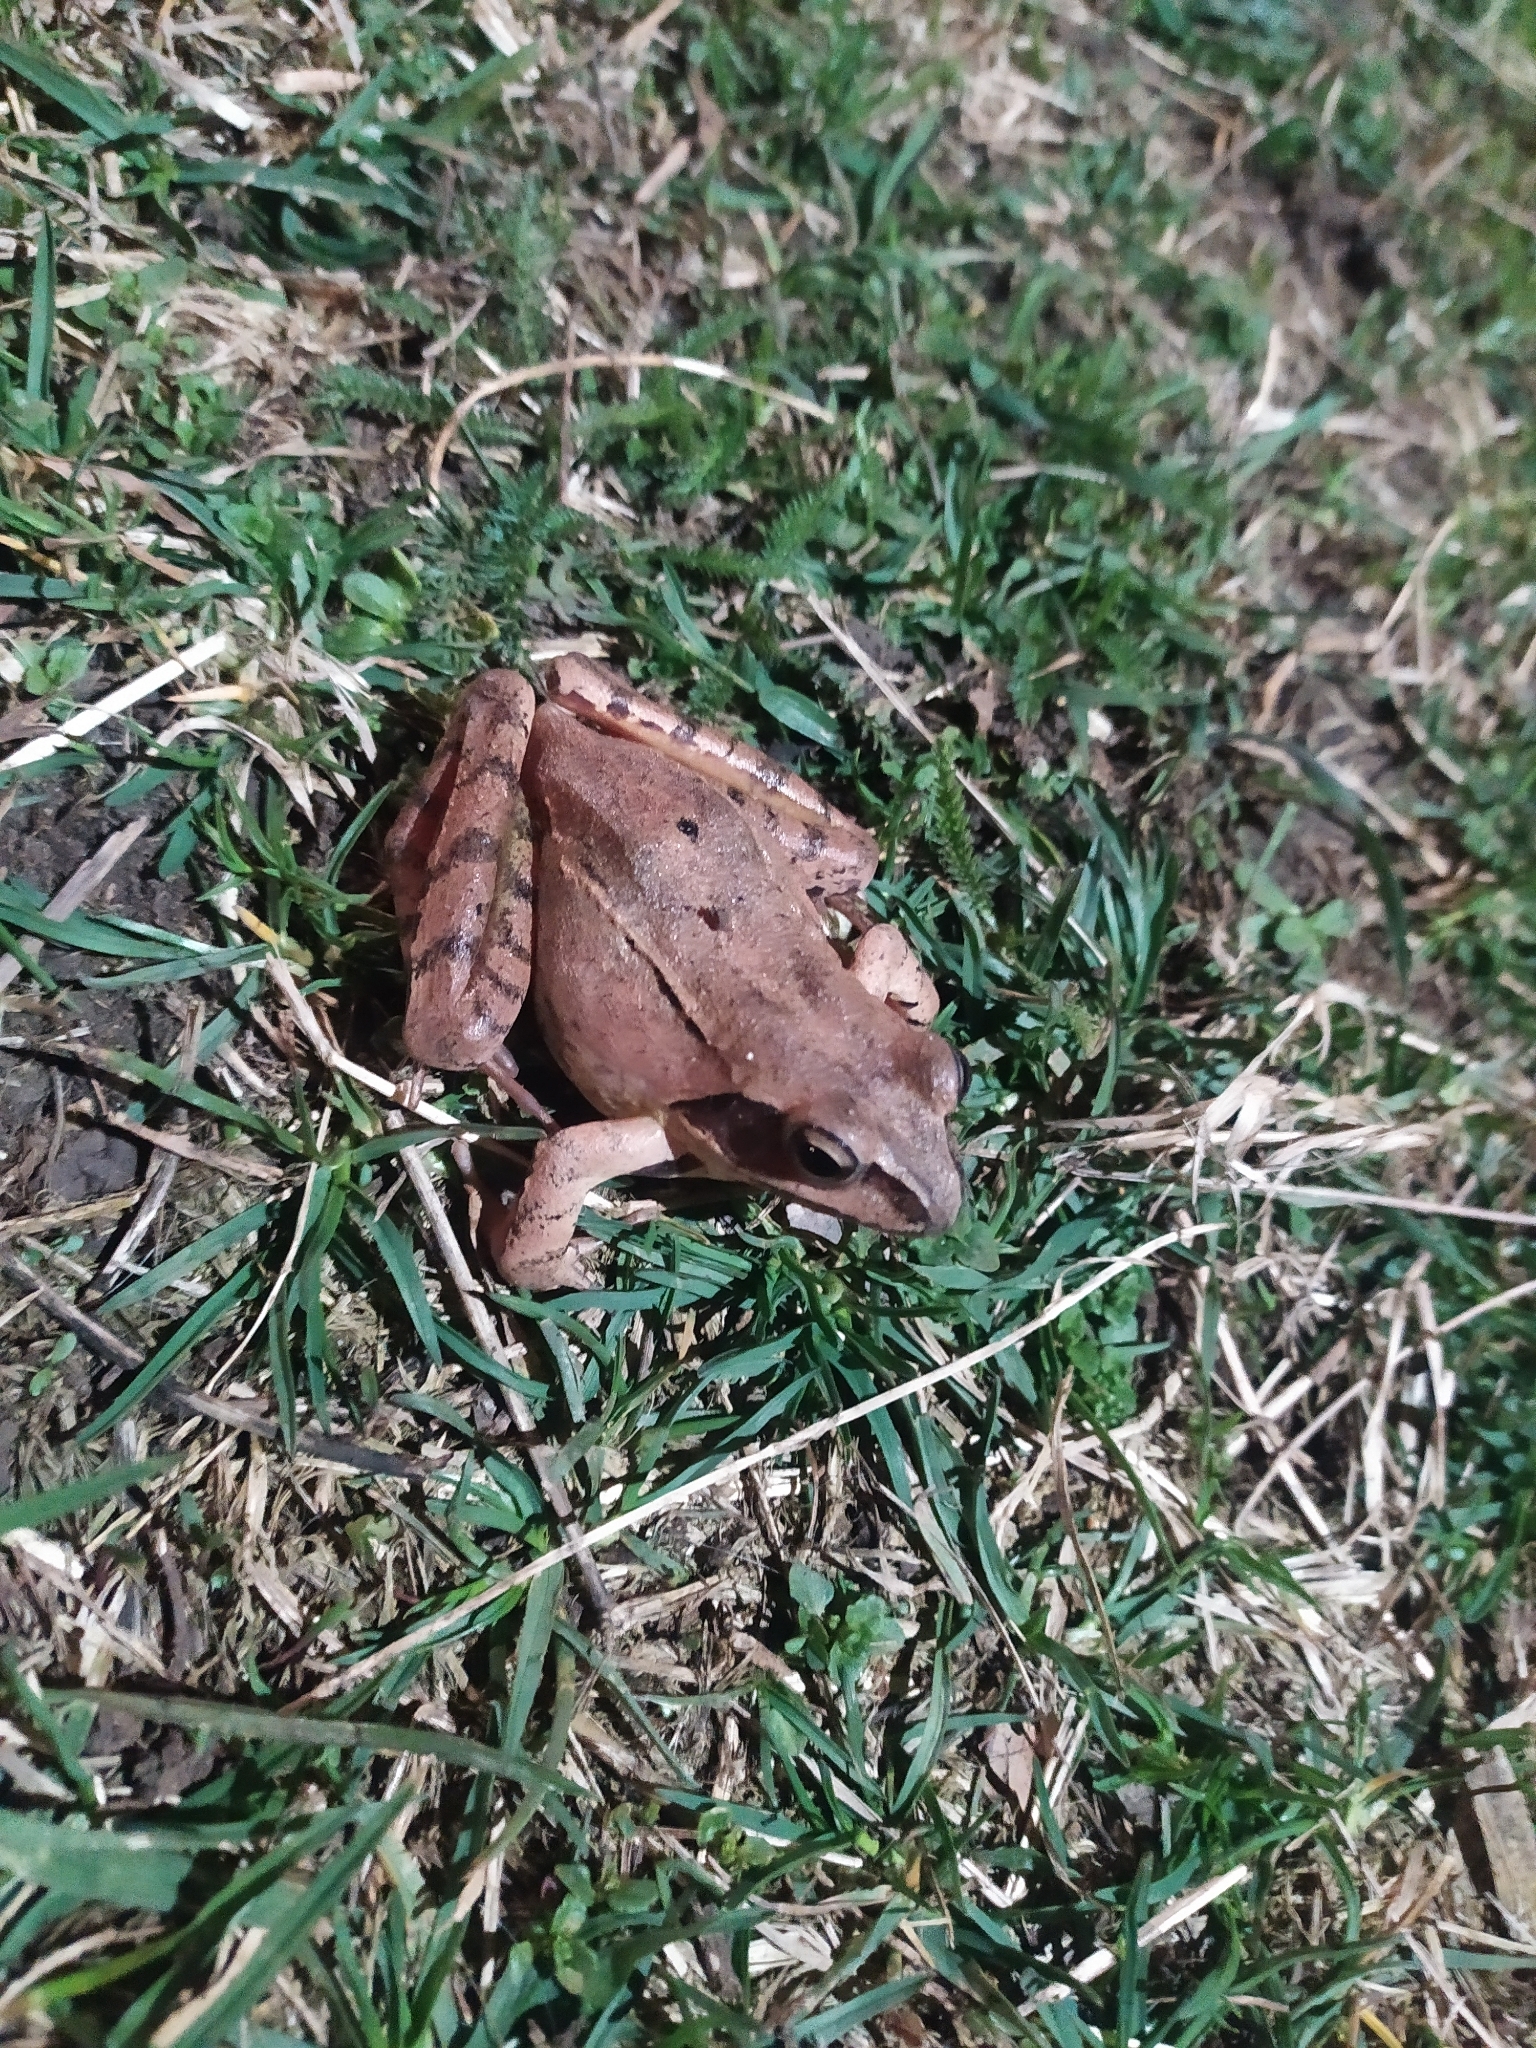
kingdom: Animalia
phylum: Chordata
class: Amphibia
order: Anura
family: Ranidae
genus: Rana
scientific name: Rana dalmatina
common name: Agile frog
